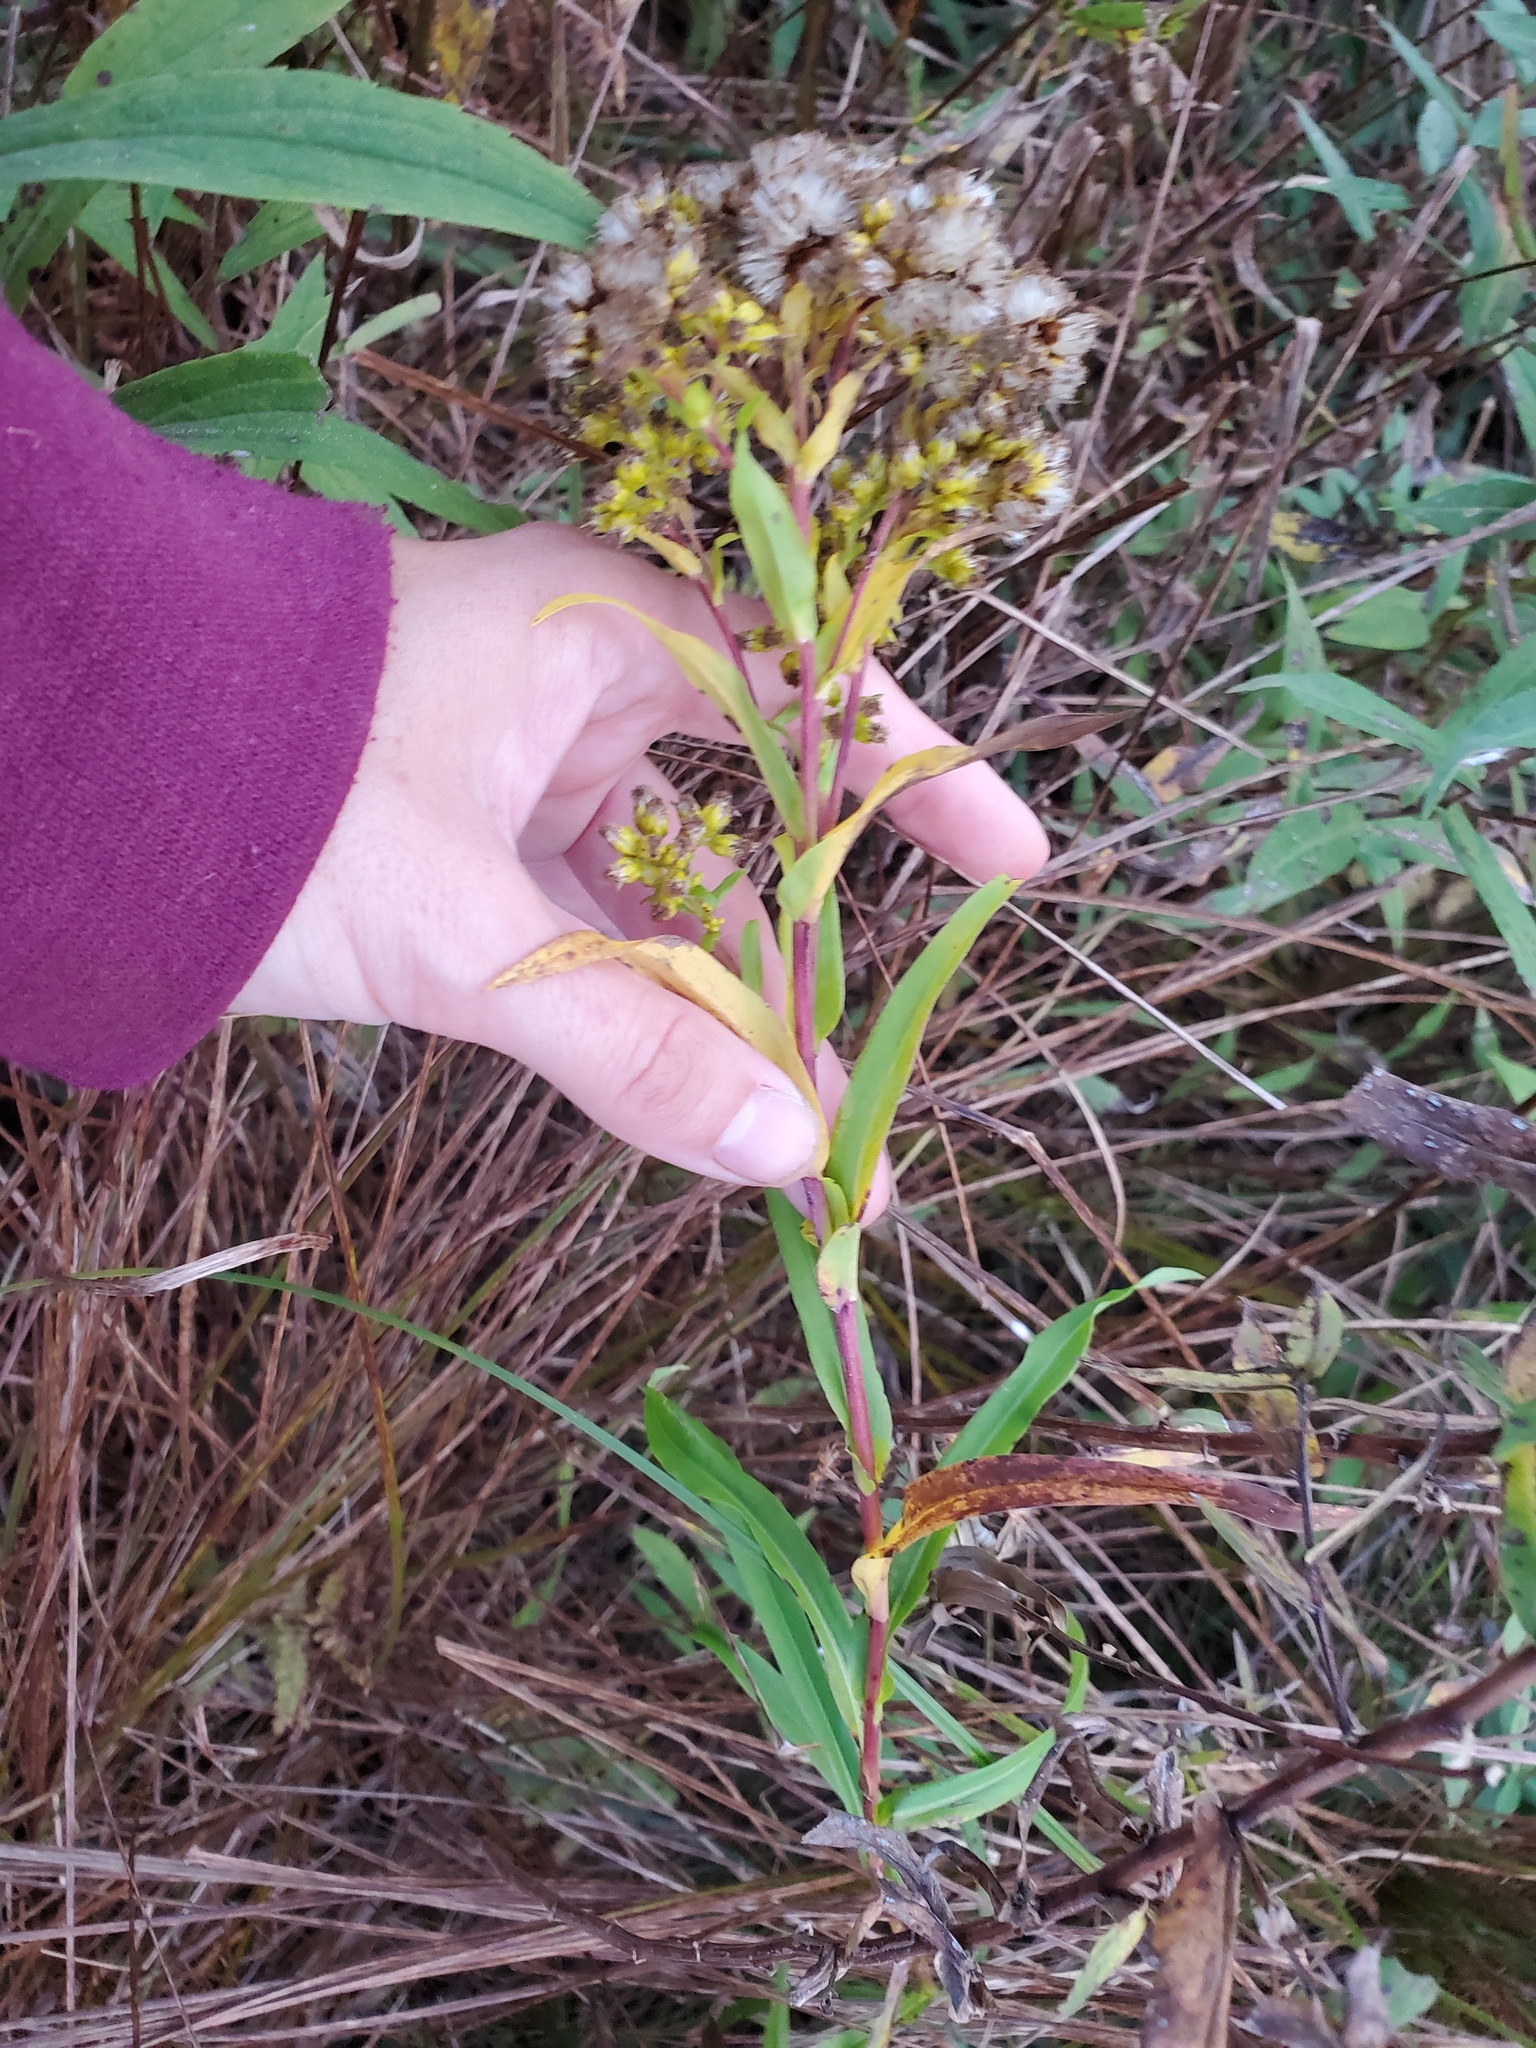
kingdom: Plantae
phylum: Tracheophyta
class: Magnoliopsida
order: Asterales
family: Asteraceae
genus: Solidago
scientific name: Solidago ohioensis
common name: Ohio goldenrod
